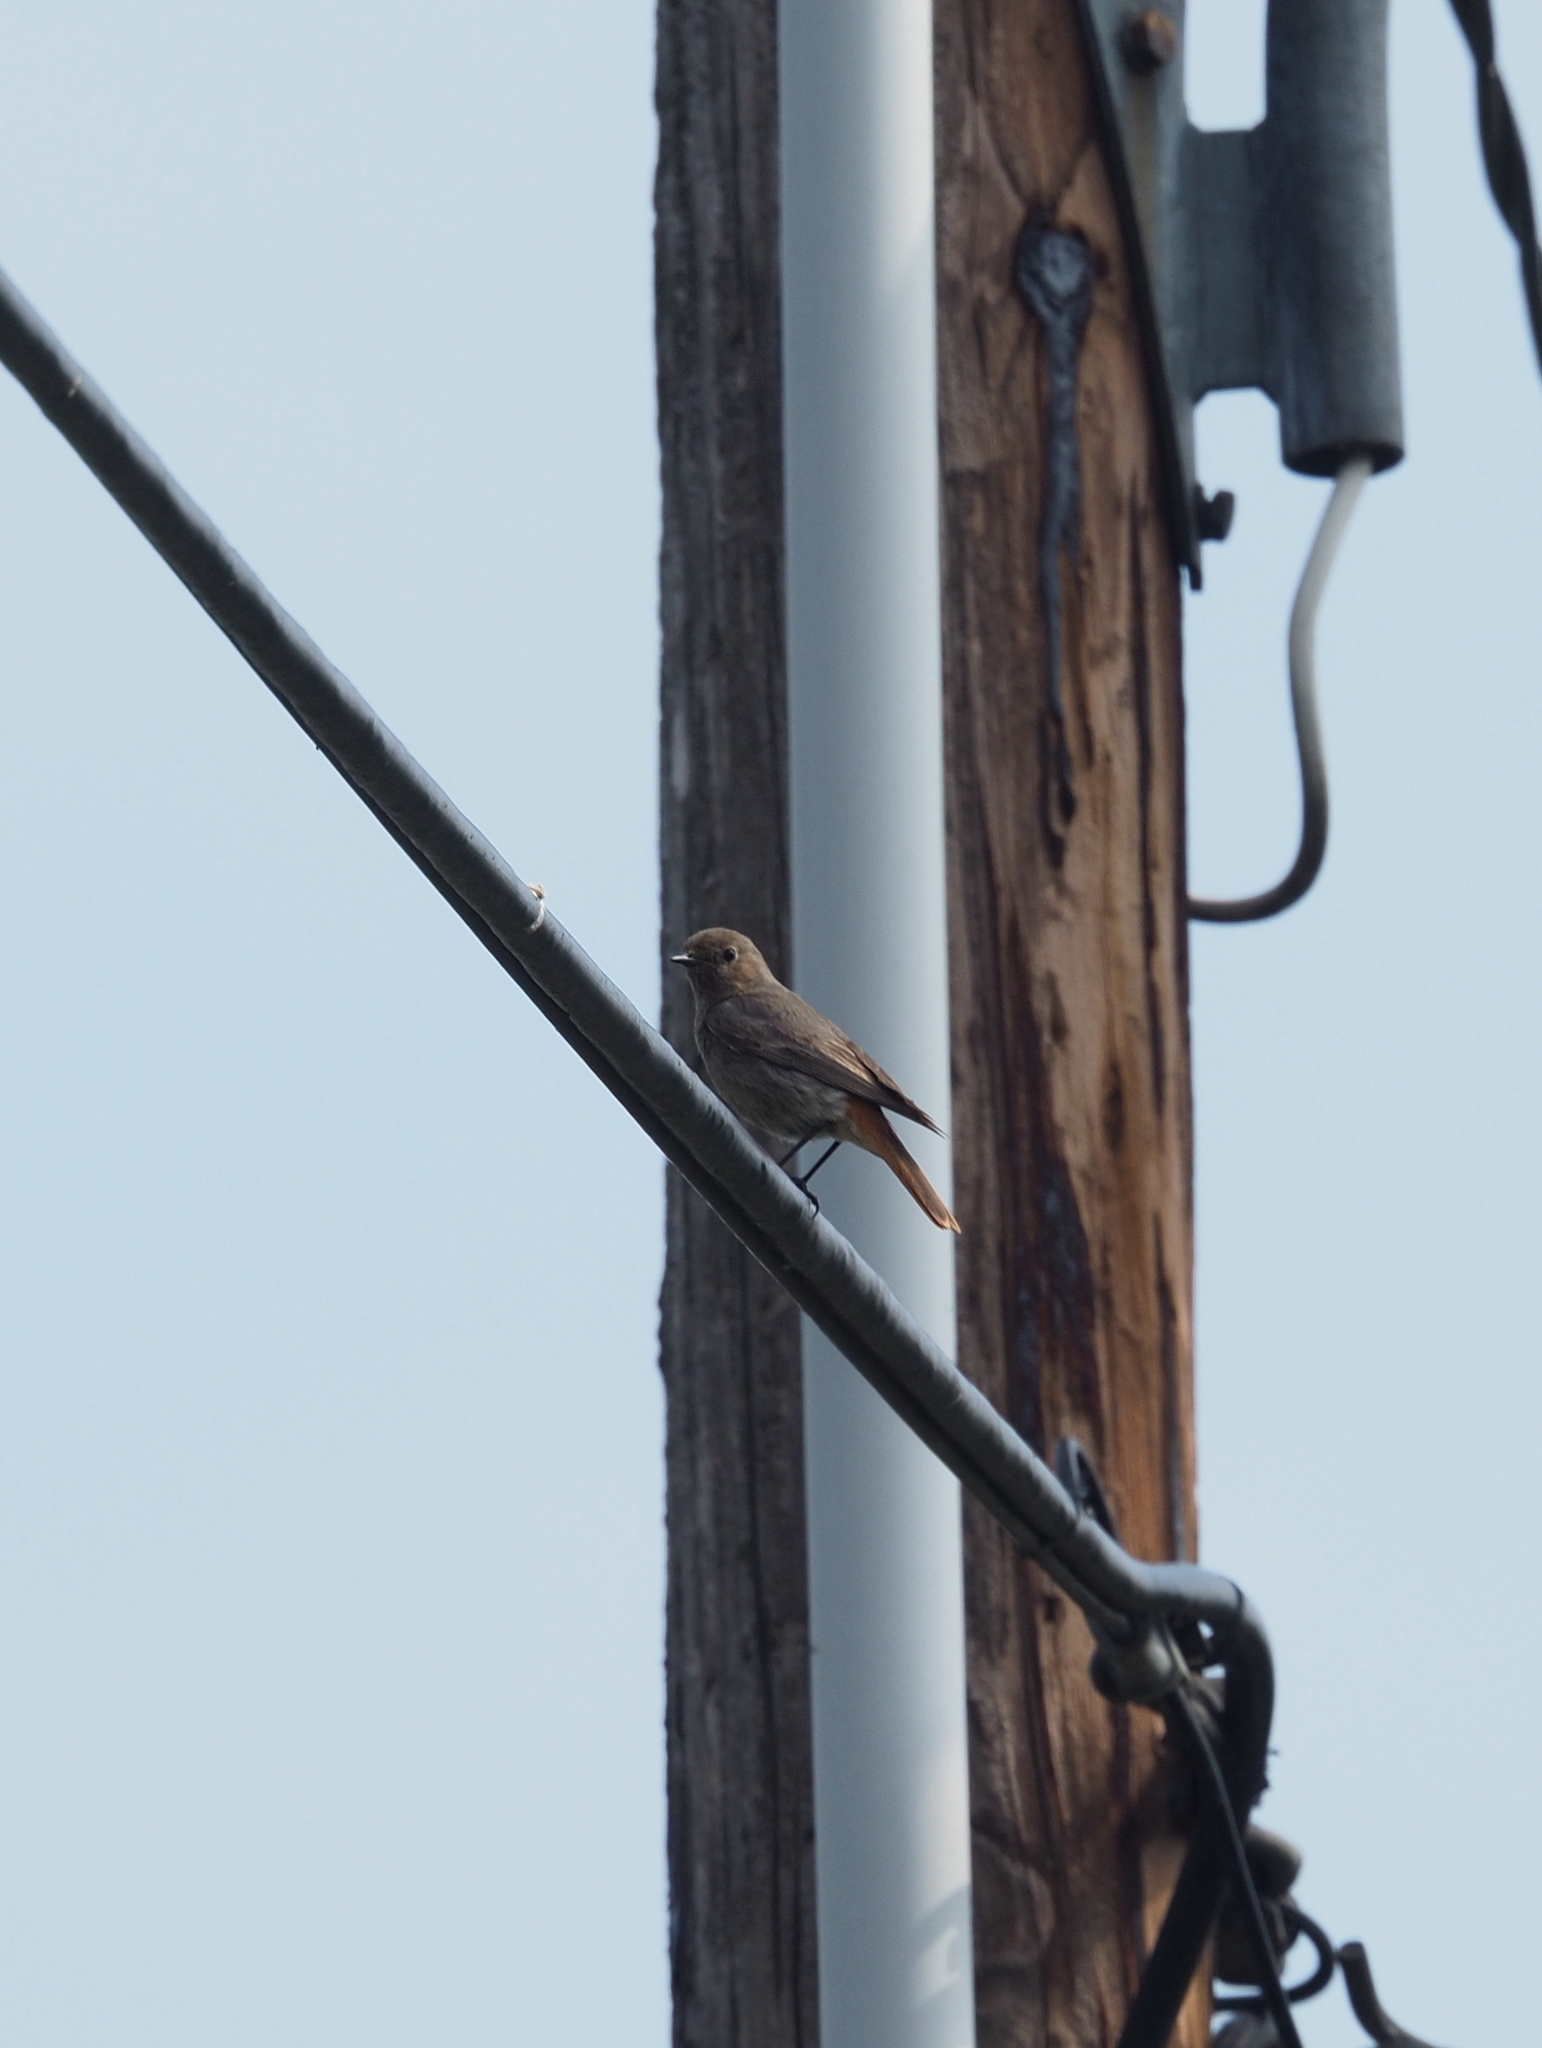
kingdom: Animalia
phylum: Chordata
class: Aves
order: Passeriformes
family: Muscicapidae
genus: Phoenicurus
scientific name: Phoenicurus ochruros
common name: Black redstart
